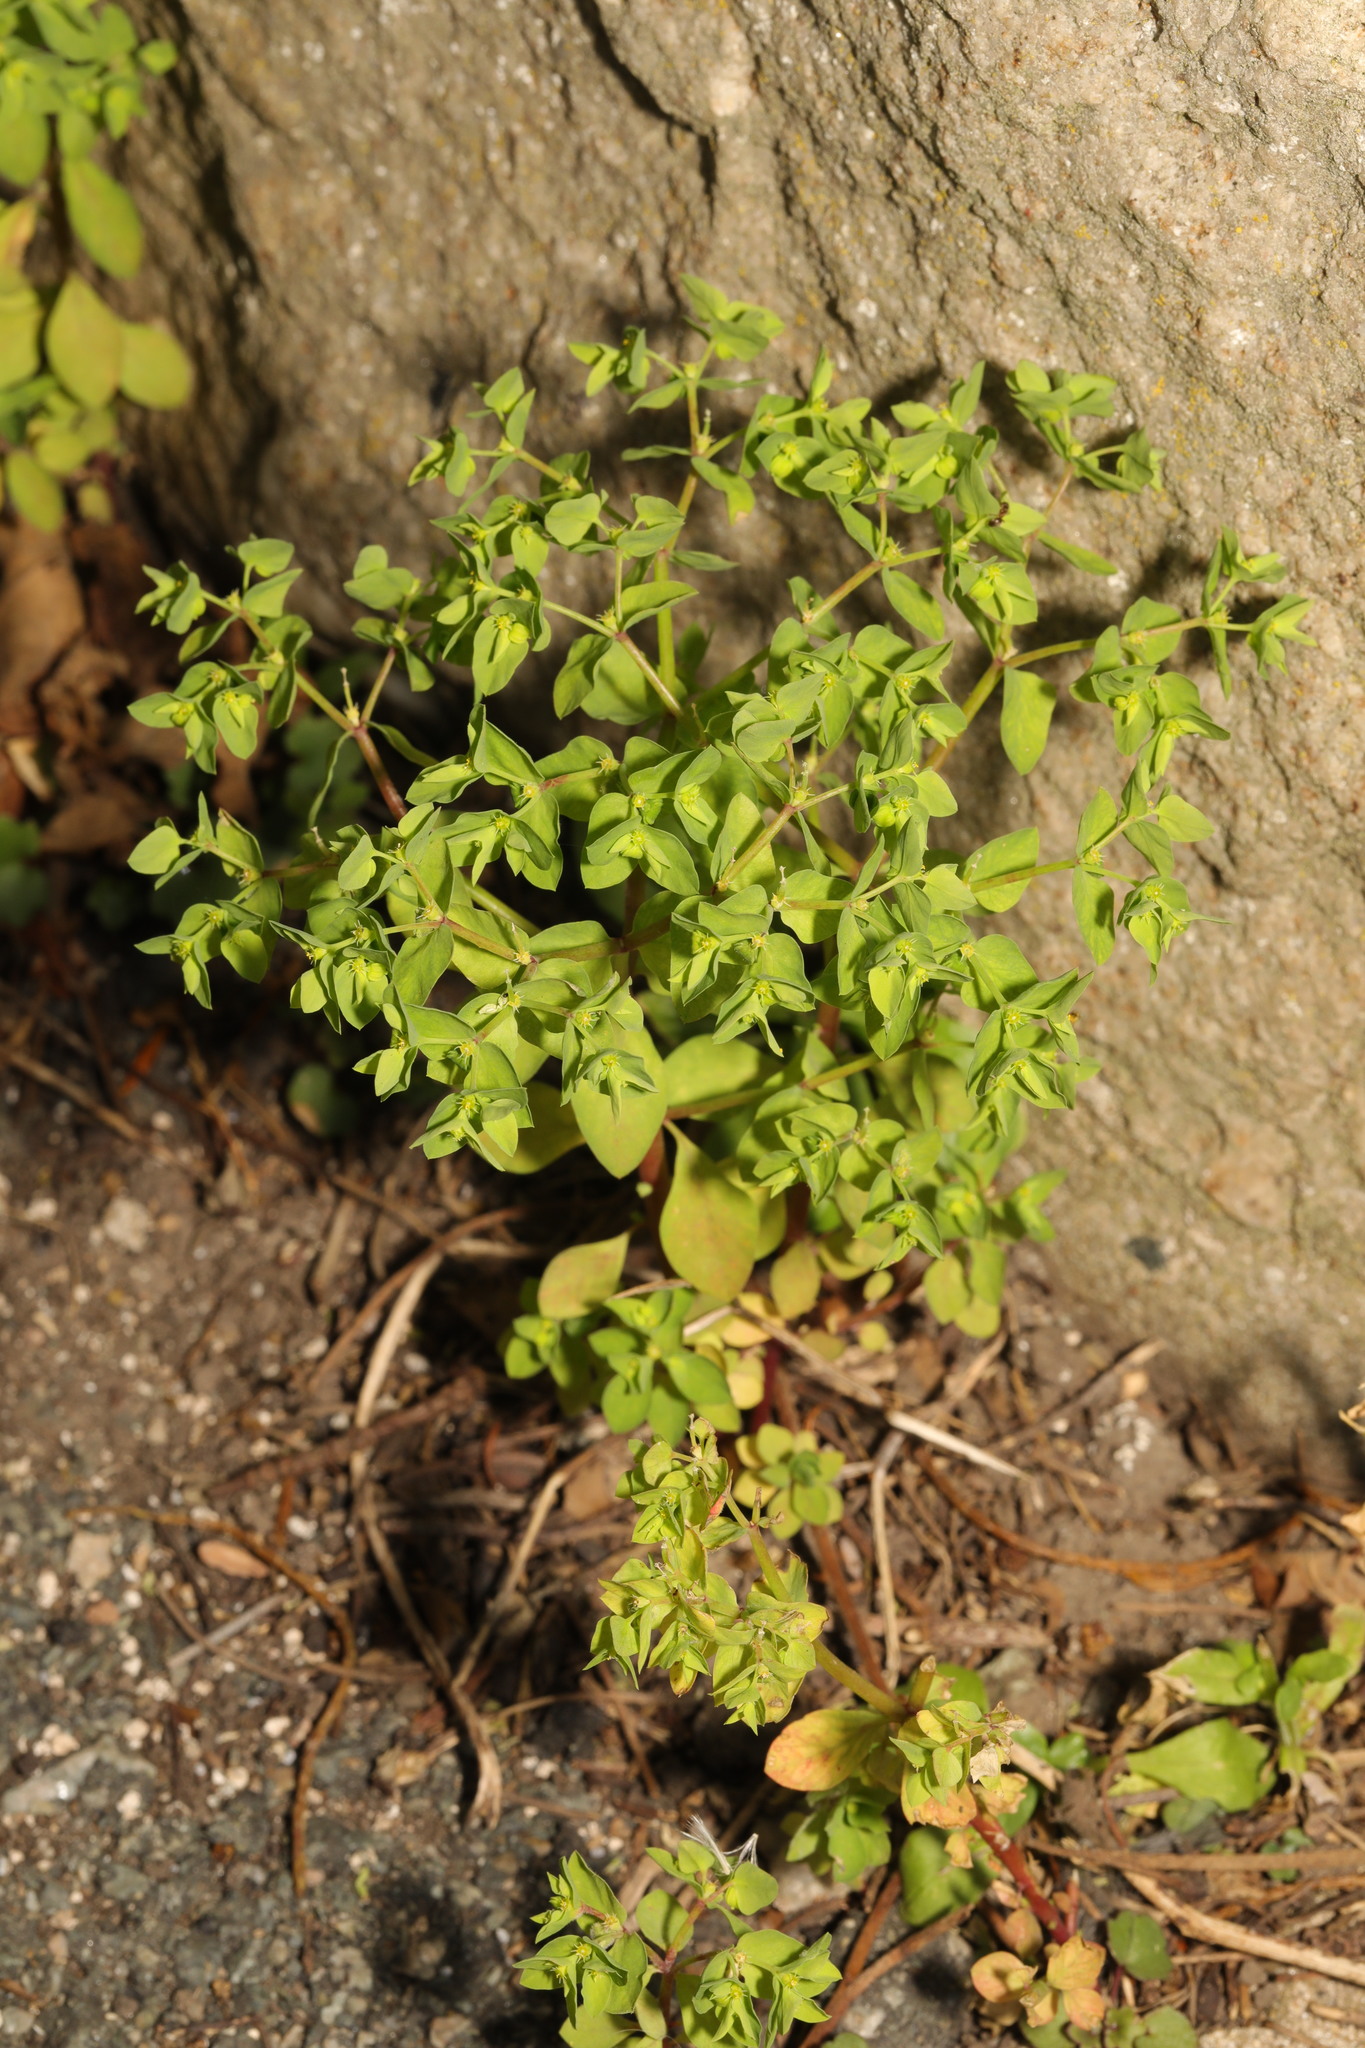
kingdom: Plantae
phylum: Tracheophyta
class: Magnoliopsida
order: Malpighiales
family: Euphorbiaceae
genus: Euphorbia
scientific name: Euphorbia peplus
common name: Petty spurge
